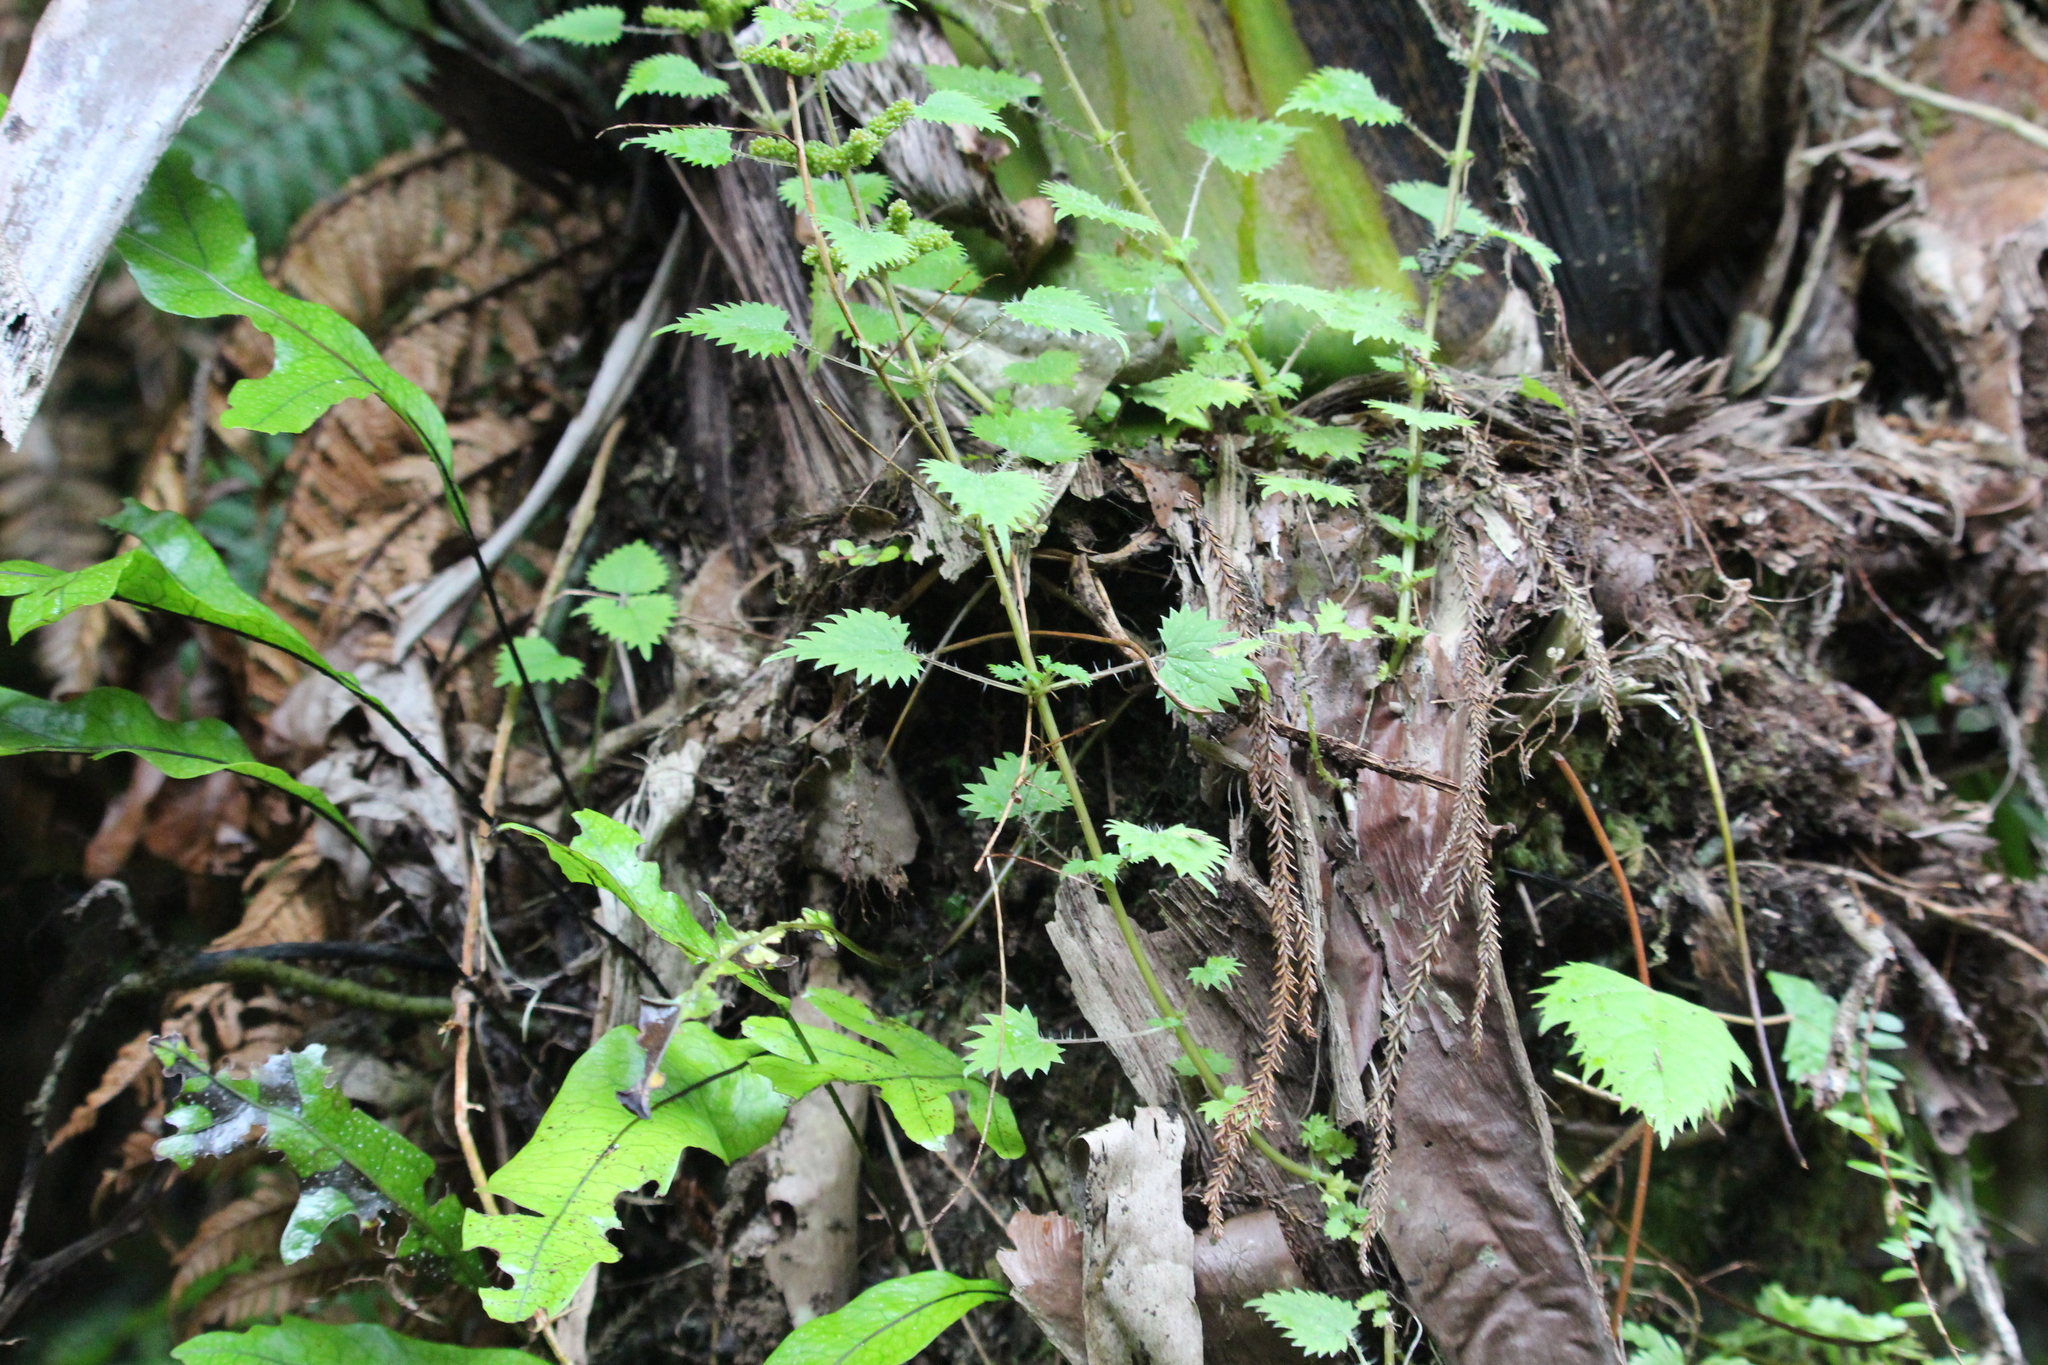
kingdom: Plantae
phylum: Tracheophyta
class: Magnoliopsida
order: Rosales
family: Urticaceae
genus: Urtica
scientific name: Urtica sykesii
